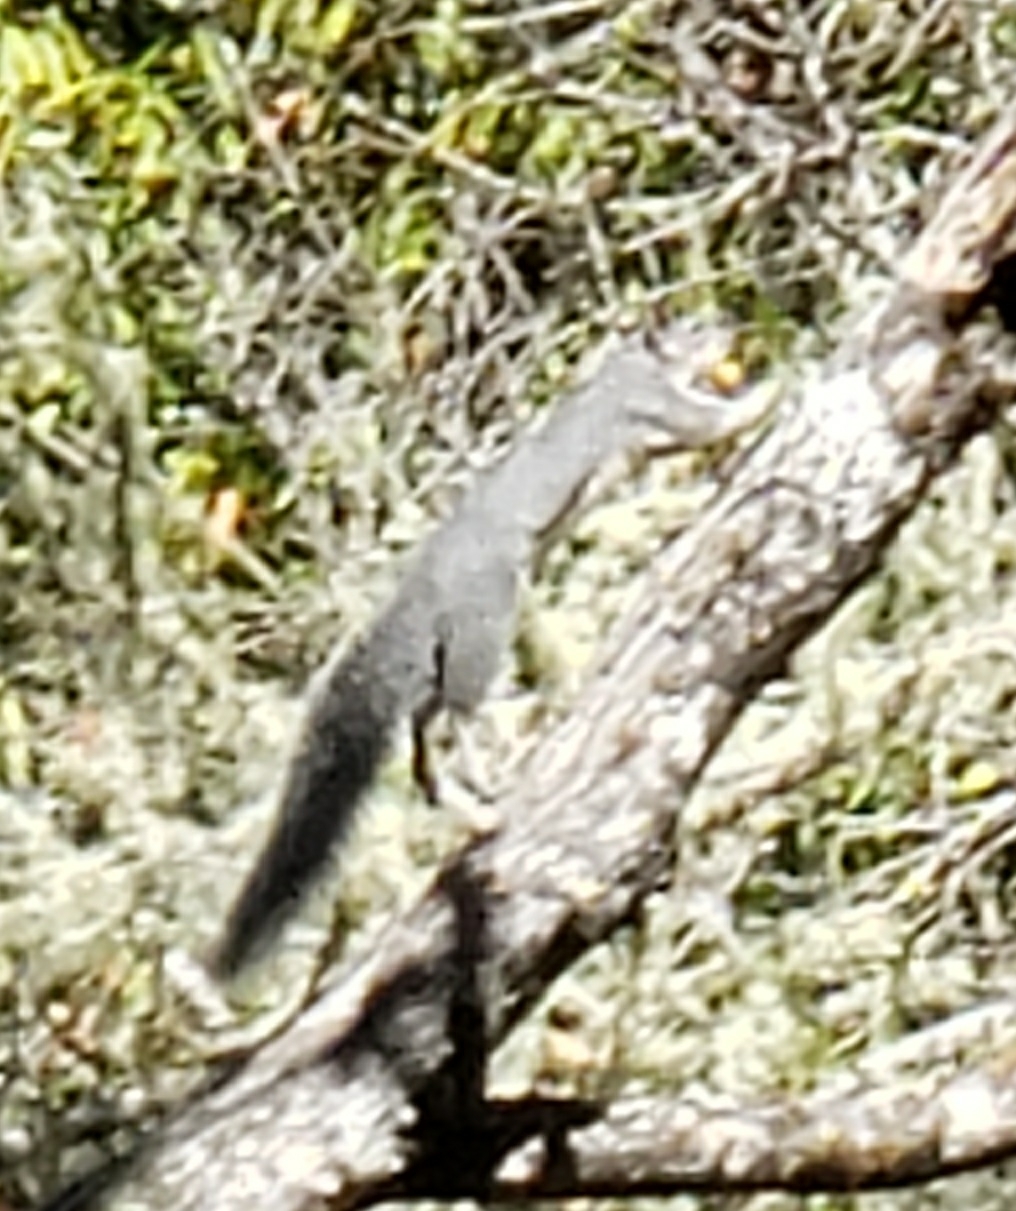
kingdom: Animalia
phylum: Chordata
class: Mammalia
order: Rodentia
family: Sciuridae
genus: Sciurus
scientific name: Sciurus griseus
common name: Western gray squirrel
